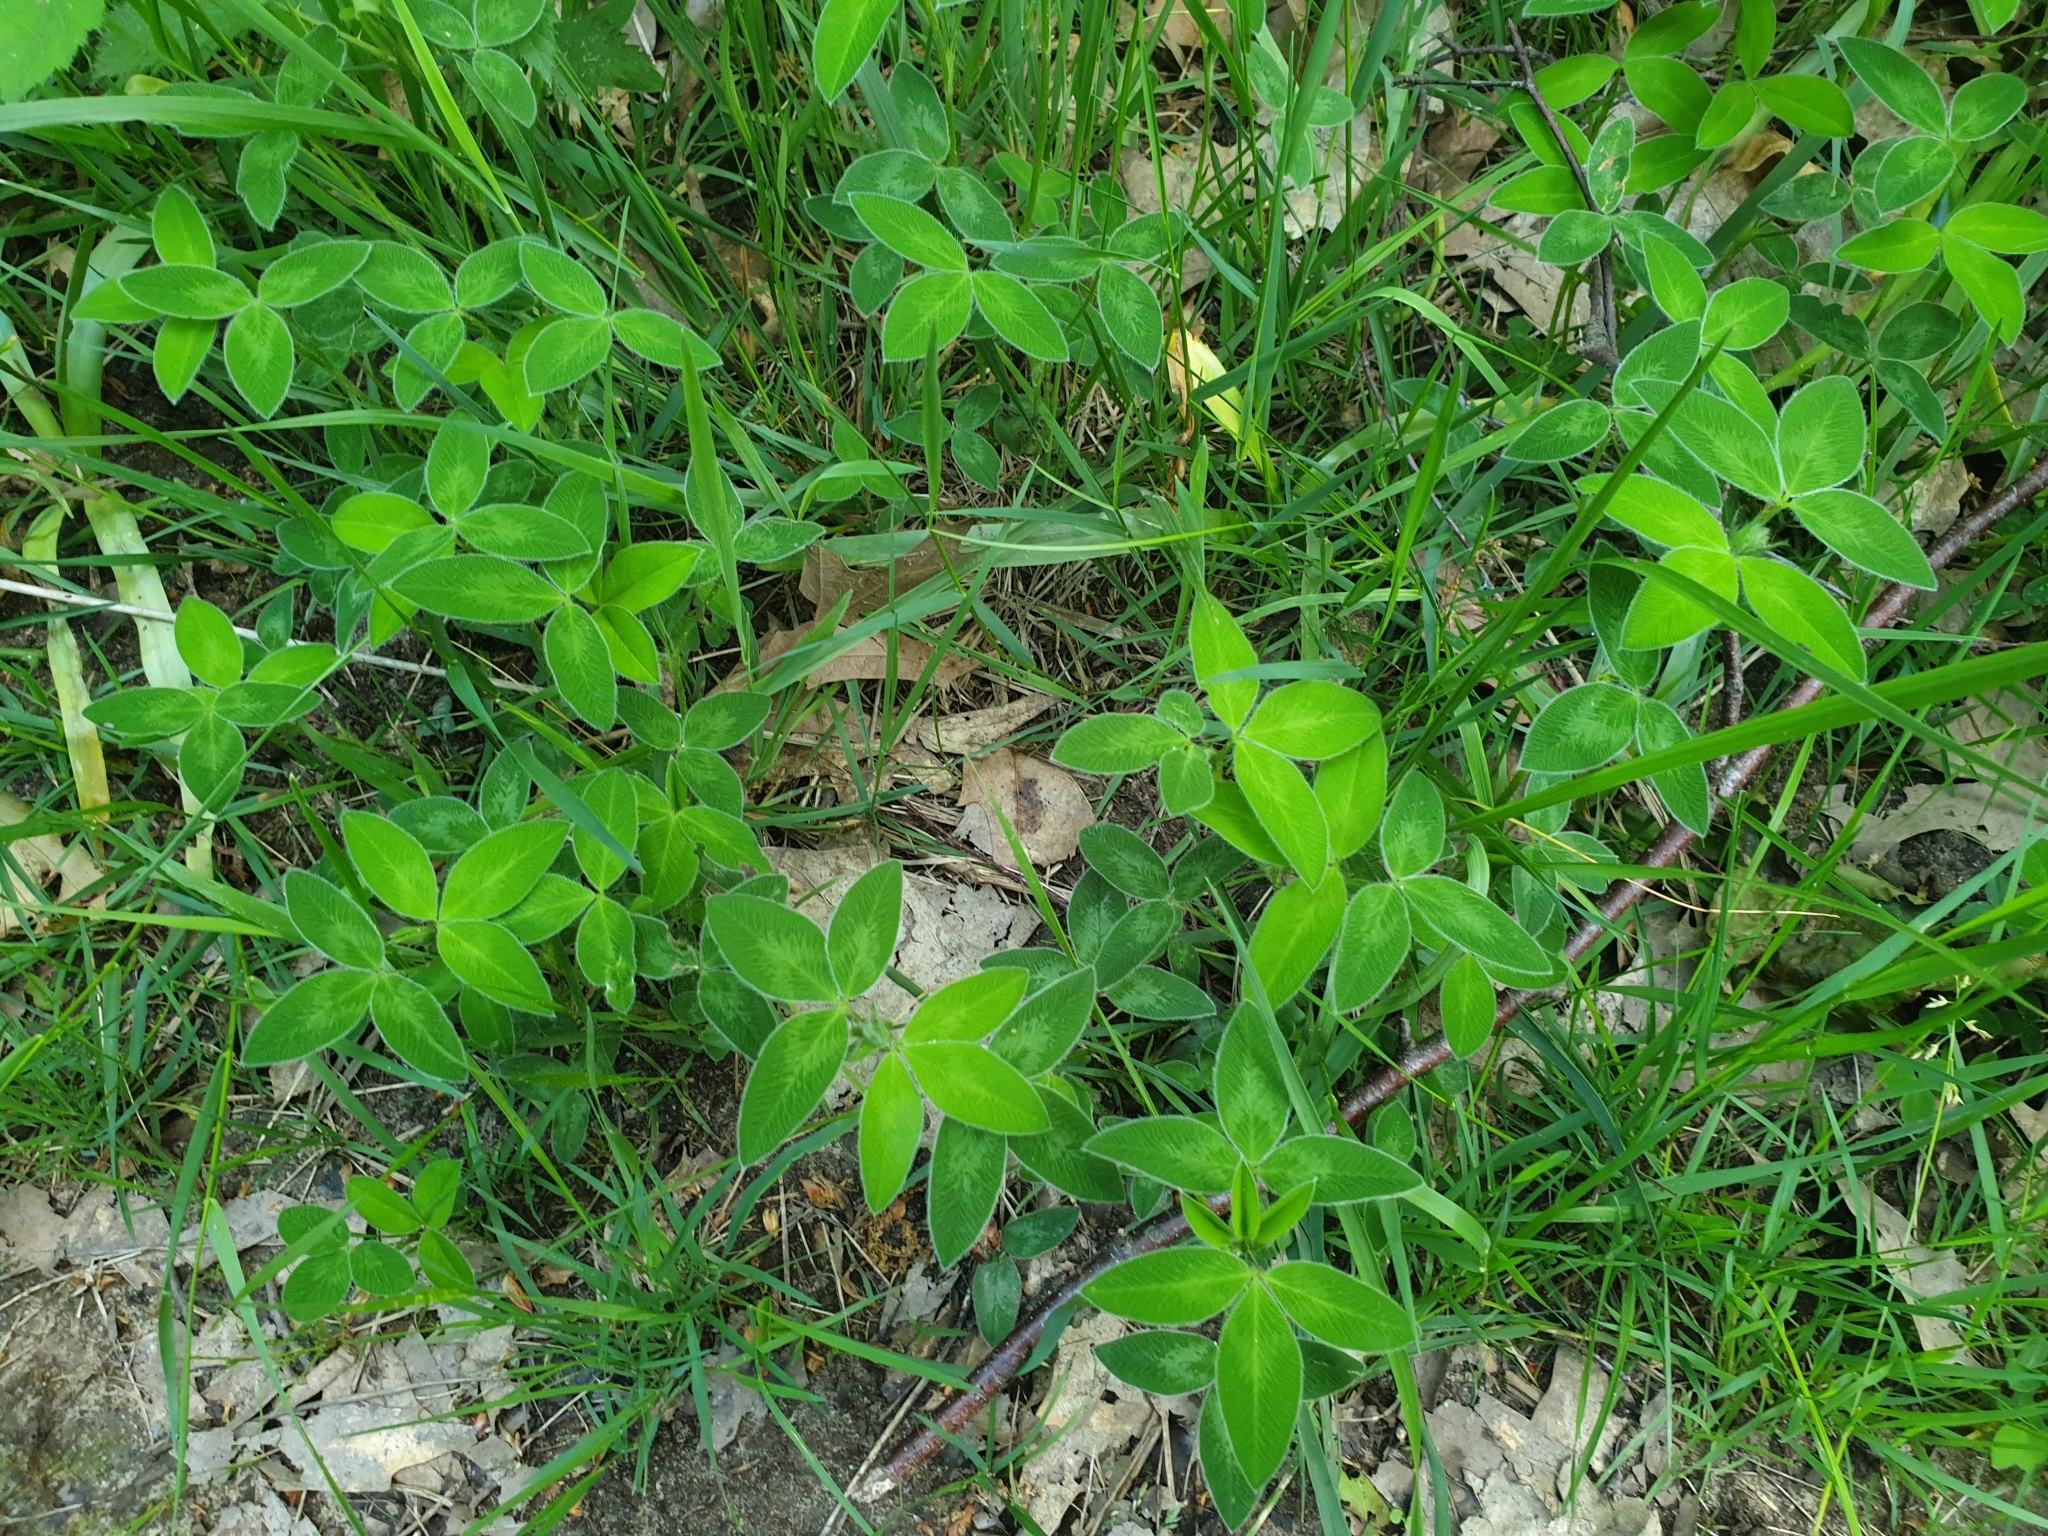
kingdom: Plantae
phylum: Tracheophyta
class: Magnoliopsida
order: Fabales
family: Fabaceae
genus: Trifolium
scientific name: Trifolium medium
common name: Zigzag clover
